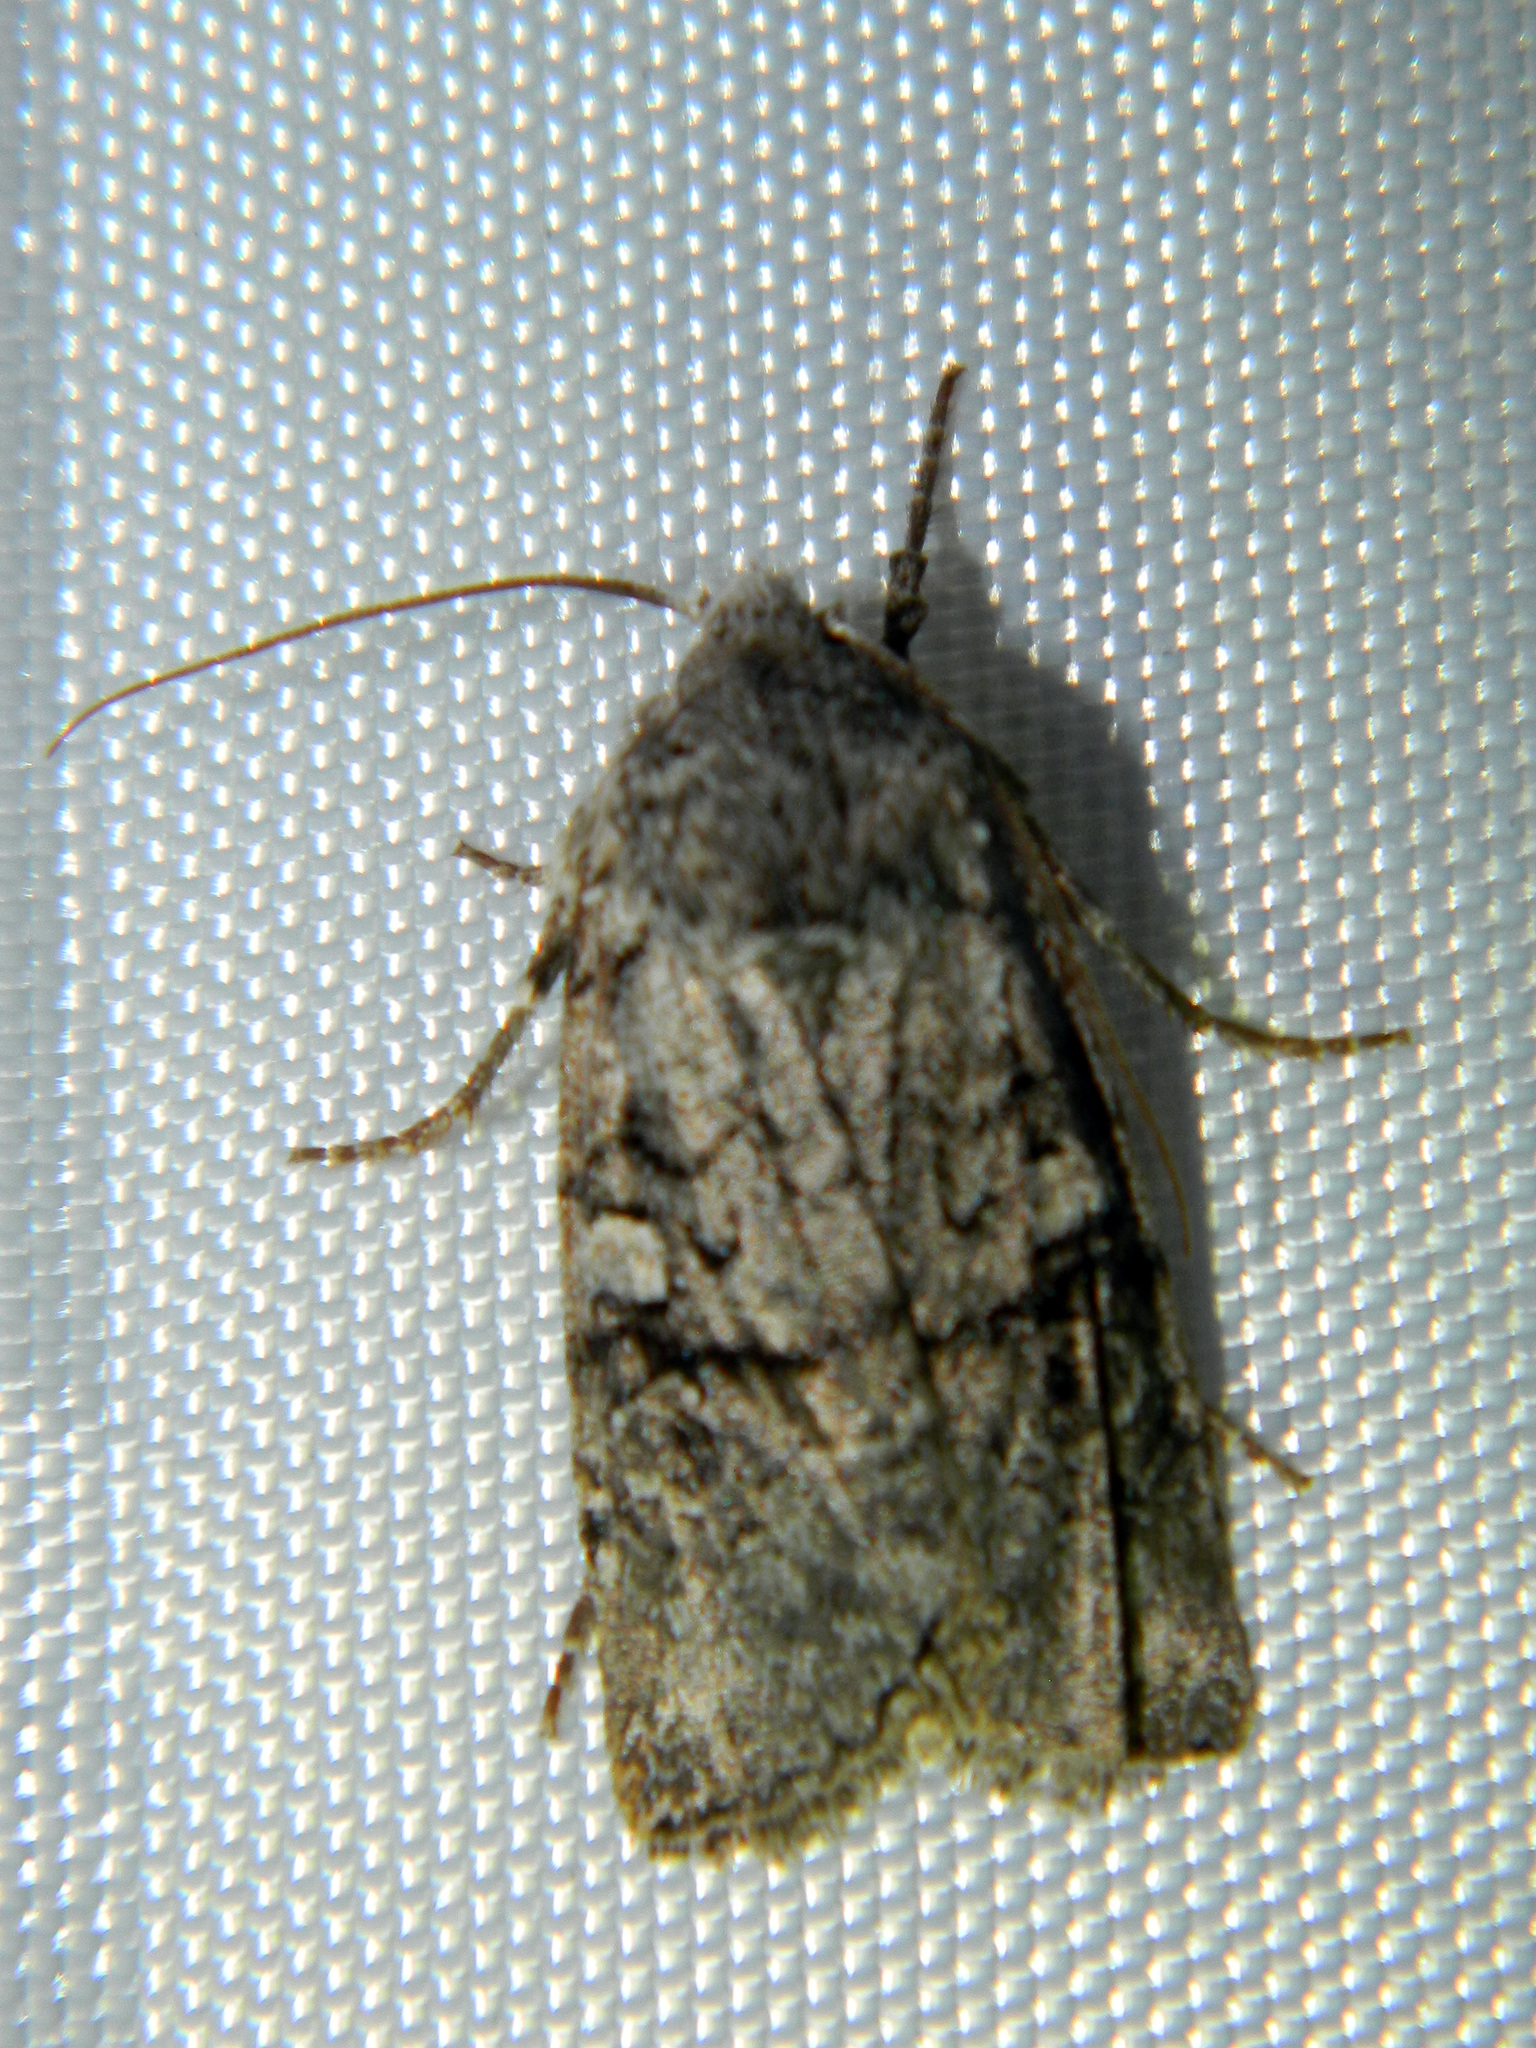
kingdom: Animalia
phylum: Arthropoda
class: Insecta
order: Lepidoptera
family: Noctuidae
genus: Litholomia
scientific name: Litholomia napaea
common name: False pinion moth
